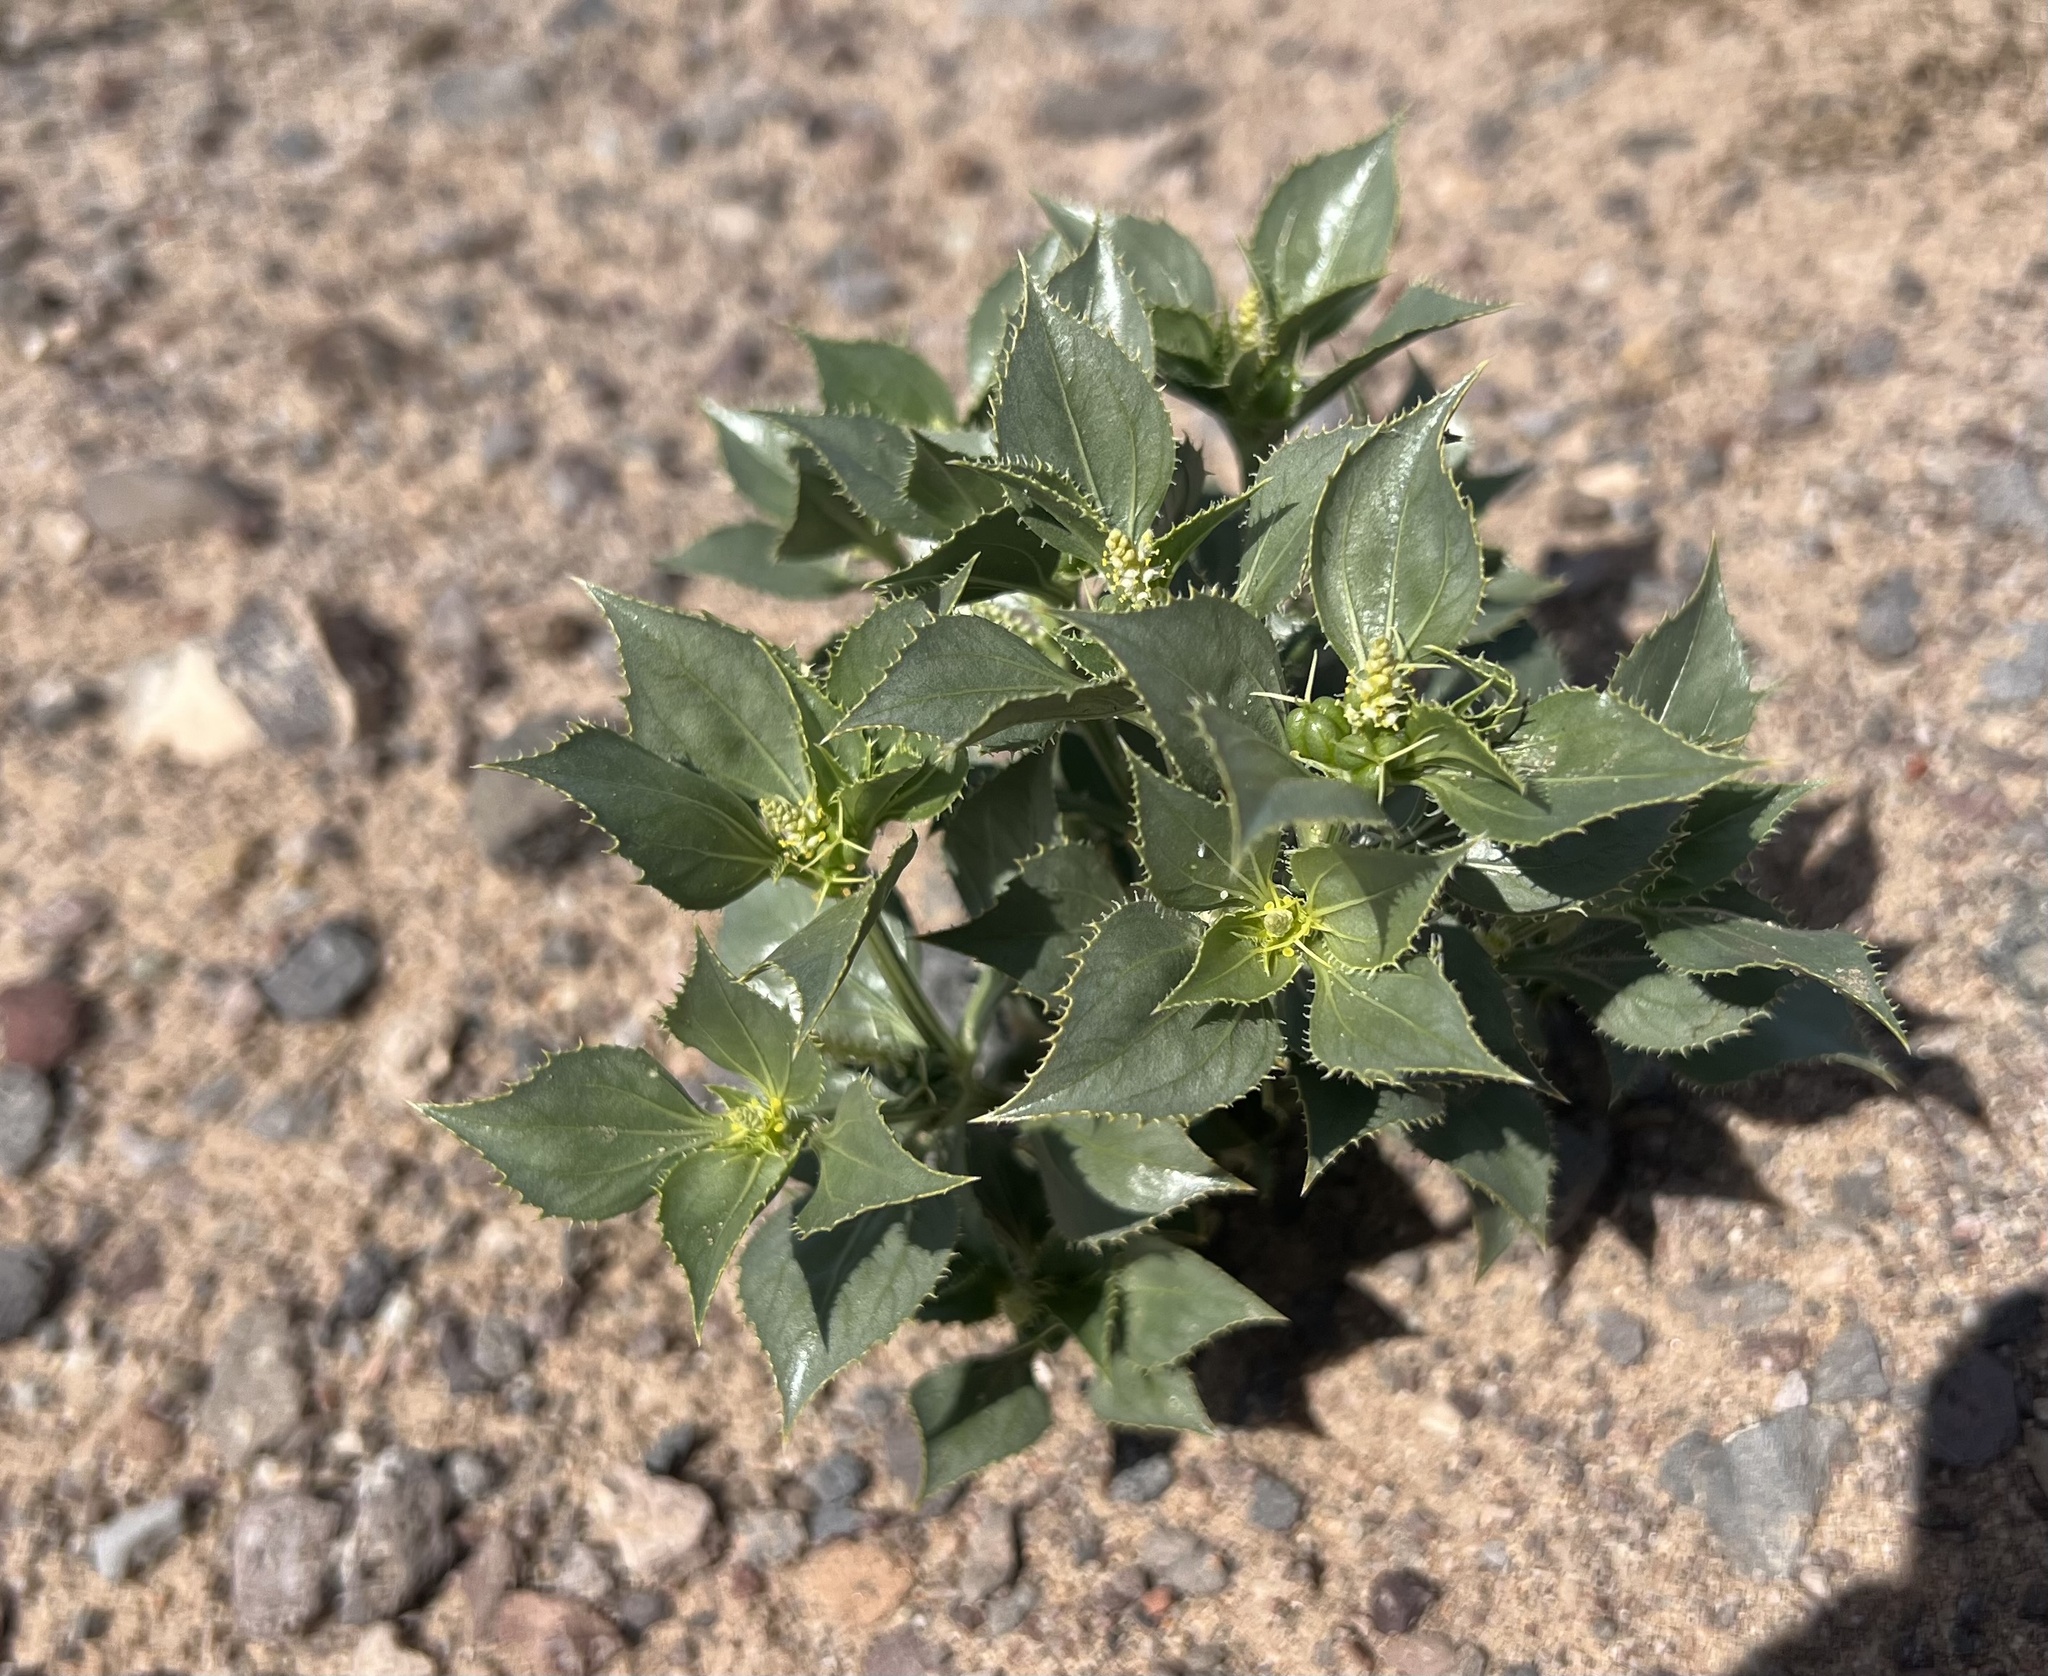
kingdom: Plantae
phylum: Tracheophyta
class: Magnoliopsida
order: Malpighiales
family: Euphorbiaceae
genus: Stillingia
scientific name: Stillingia spinulosa
